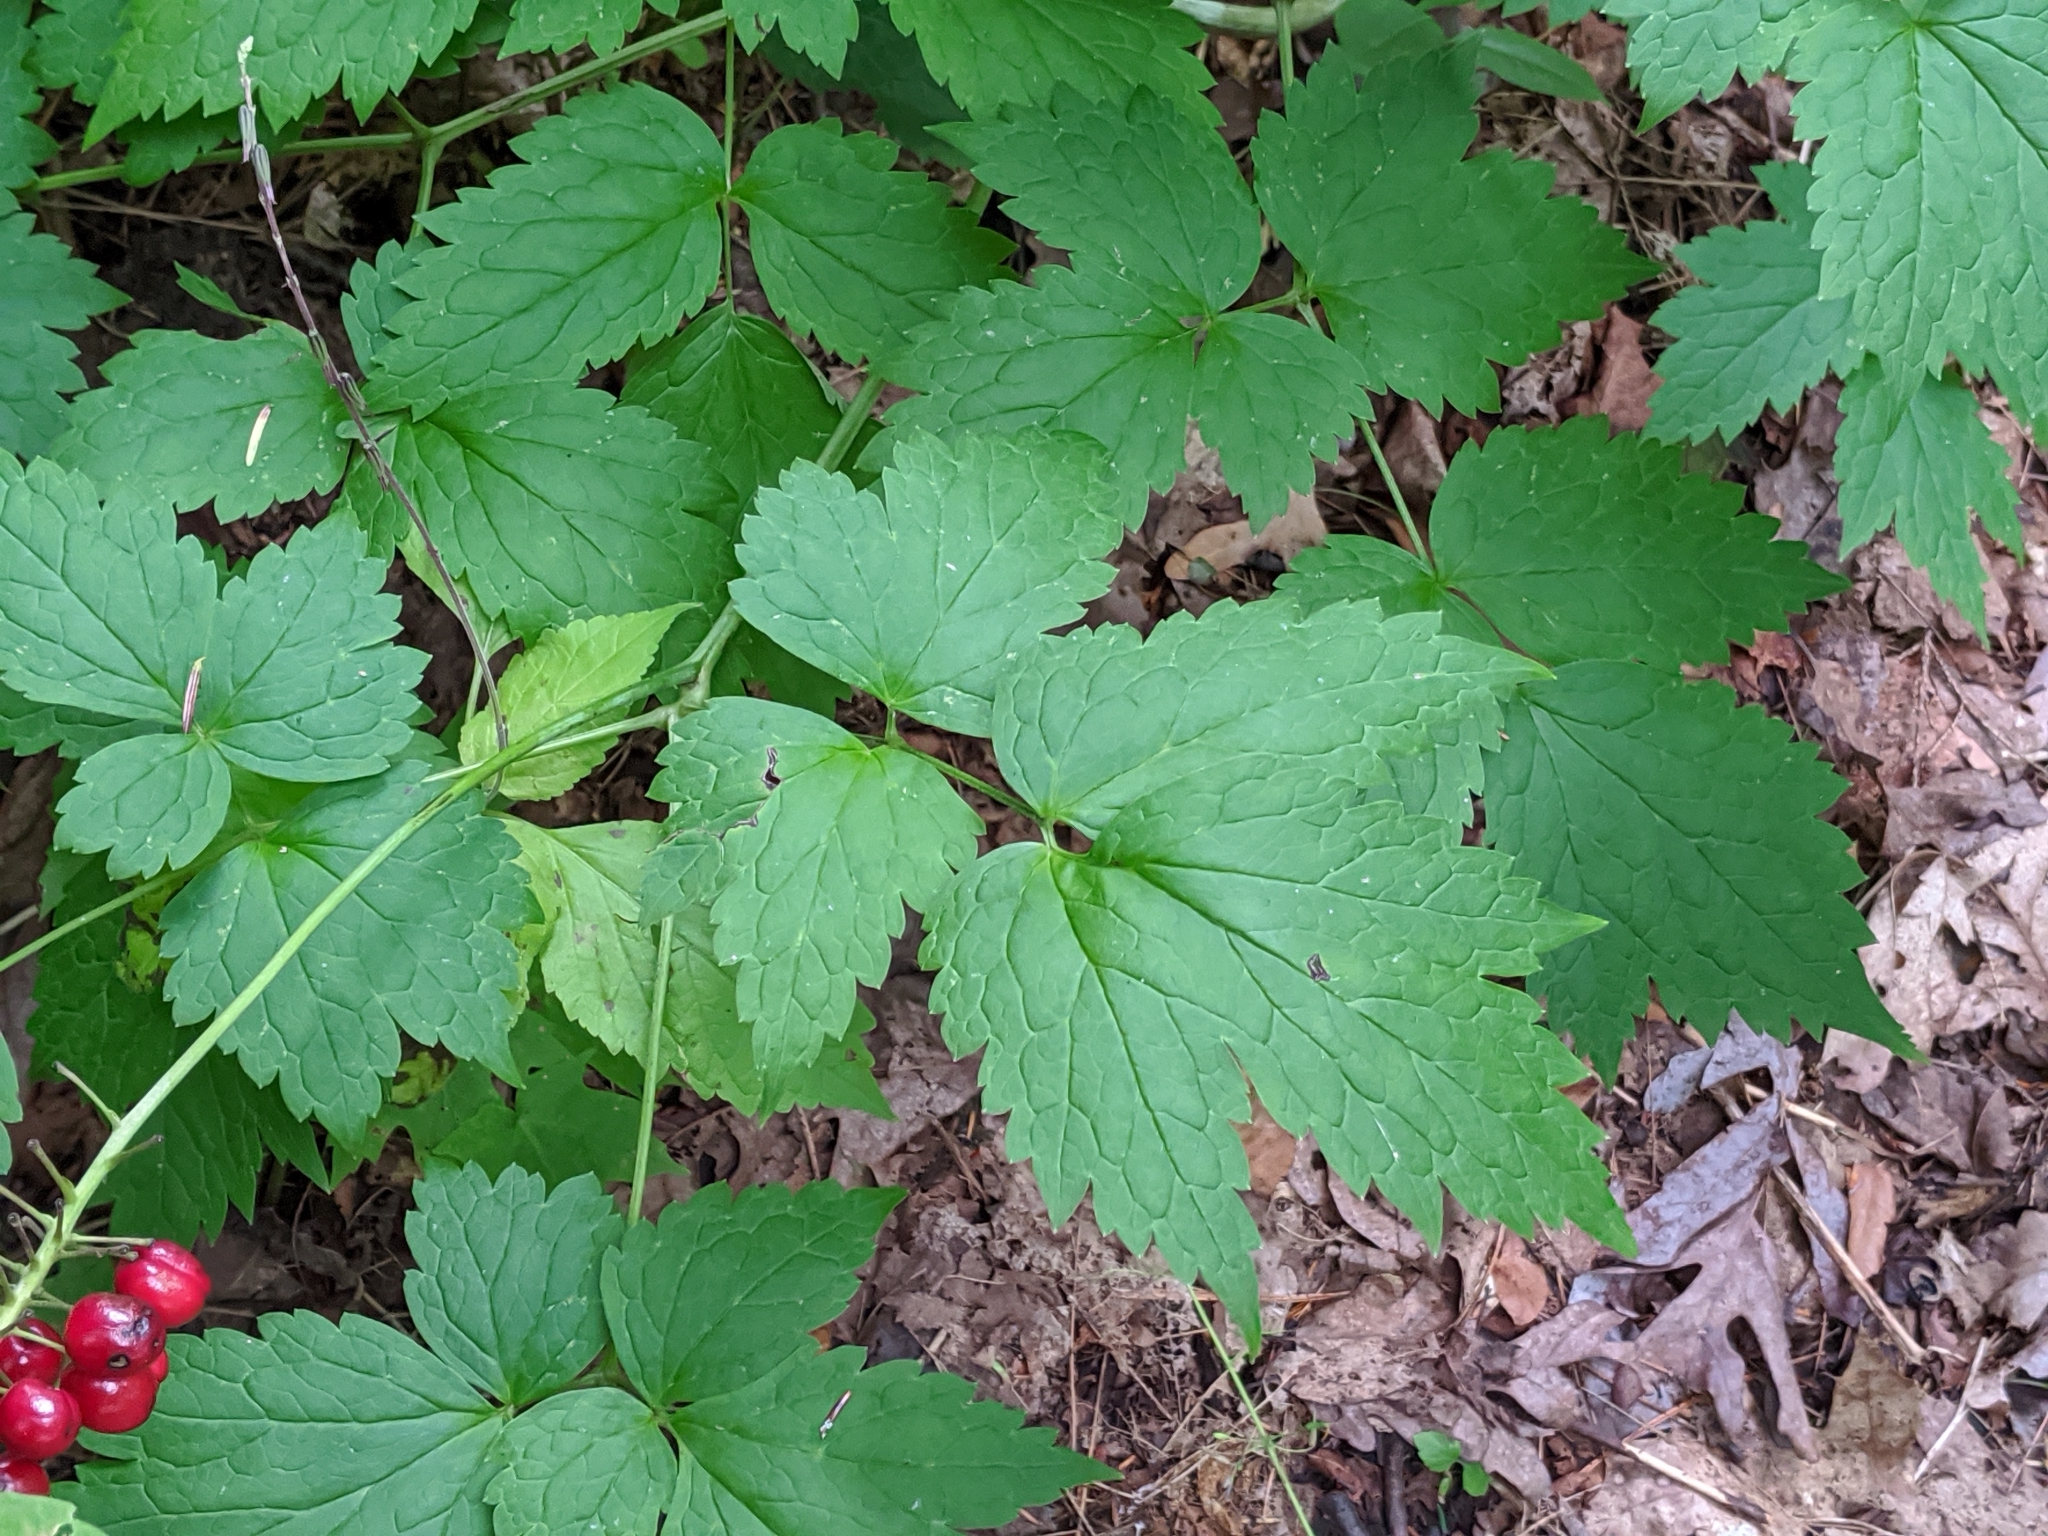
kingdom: Plantae
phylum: Tracheophyta
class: Magnoliopsida
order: Ranunculales
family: Ranunculaceae
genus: Actaea
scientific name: Actaea rubra
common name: Red baneberry
